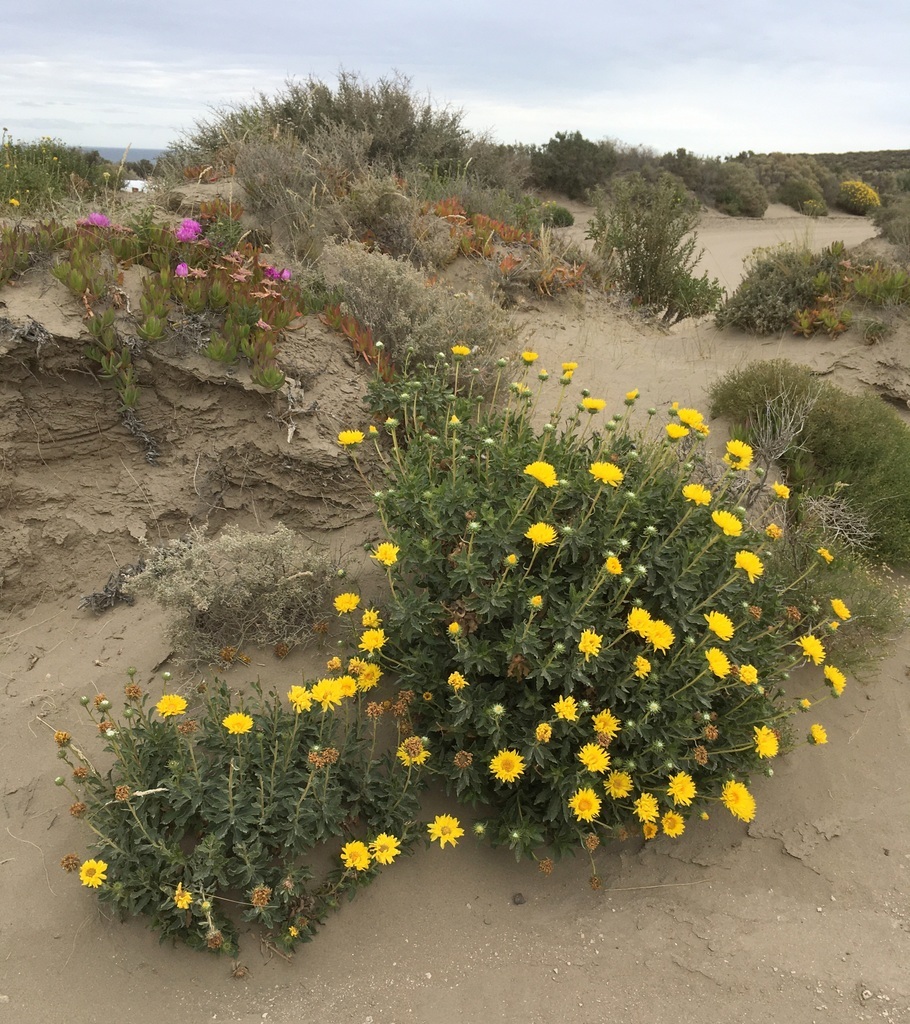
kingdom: Plantae
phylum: Tracheophyta
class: Magnoliopsida
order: Asterales
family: Asteraceae
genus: Grindelia
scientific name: Grindelia chiloensis
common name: Shrubby gumweed
